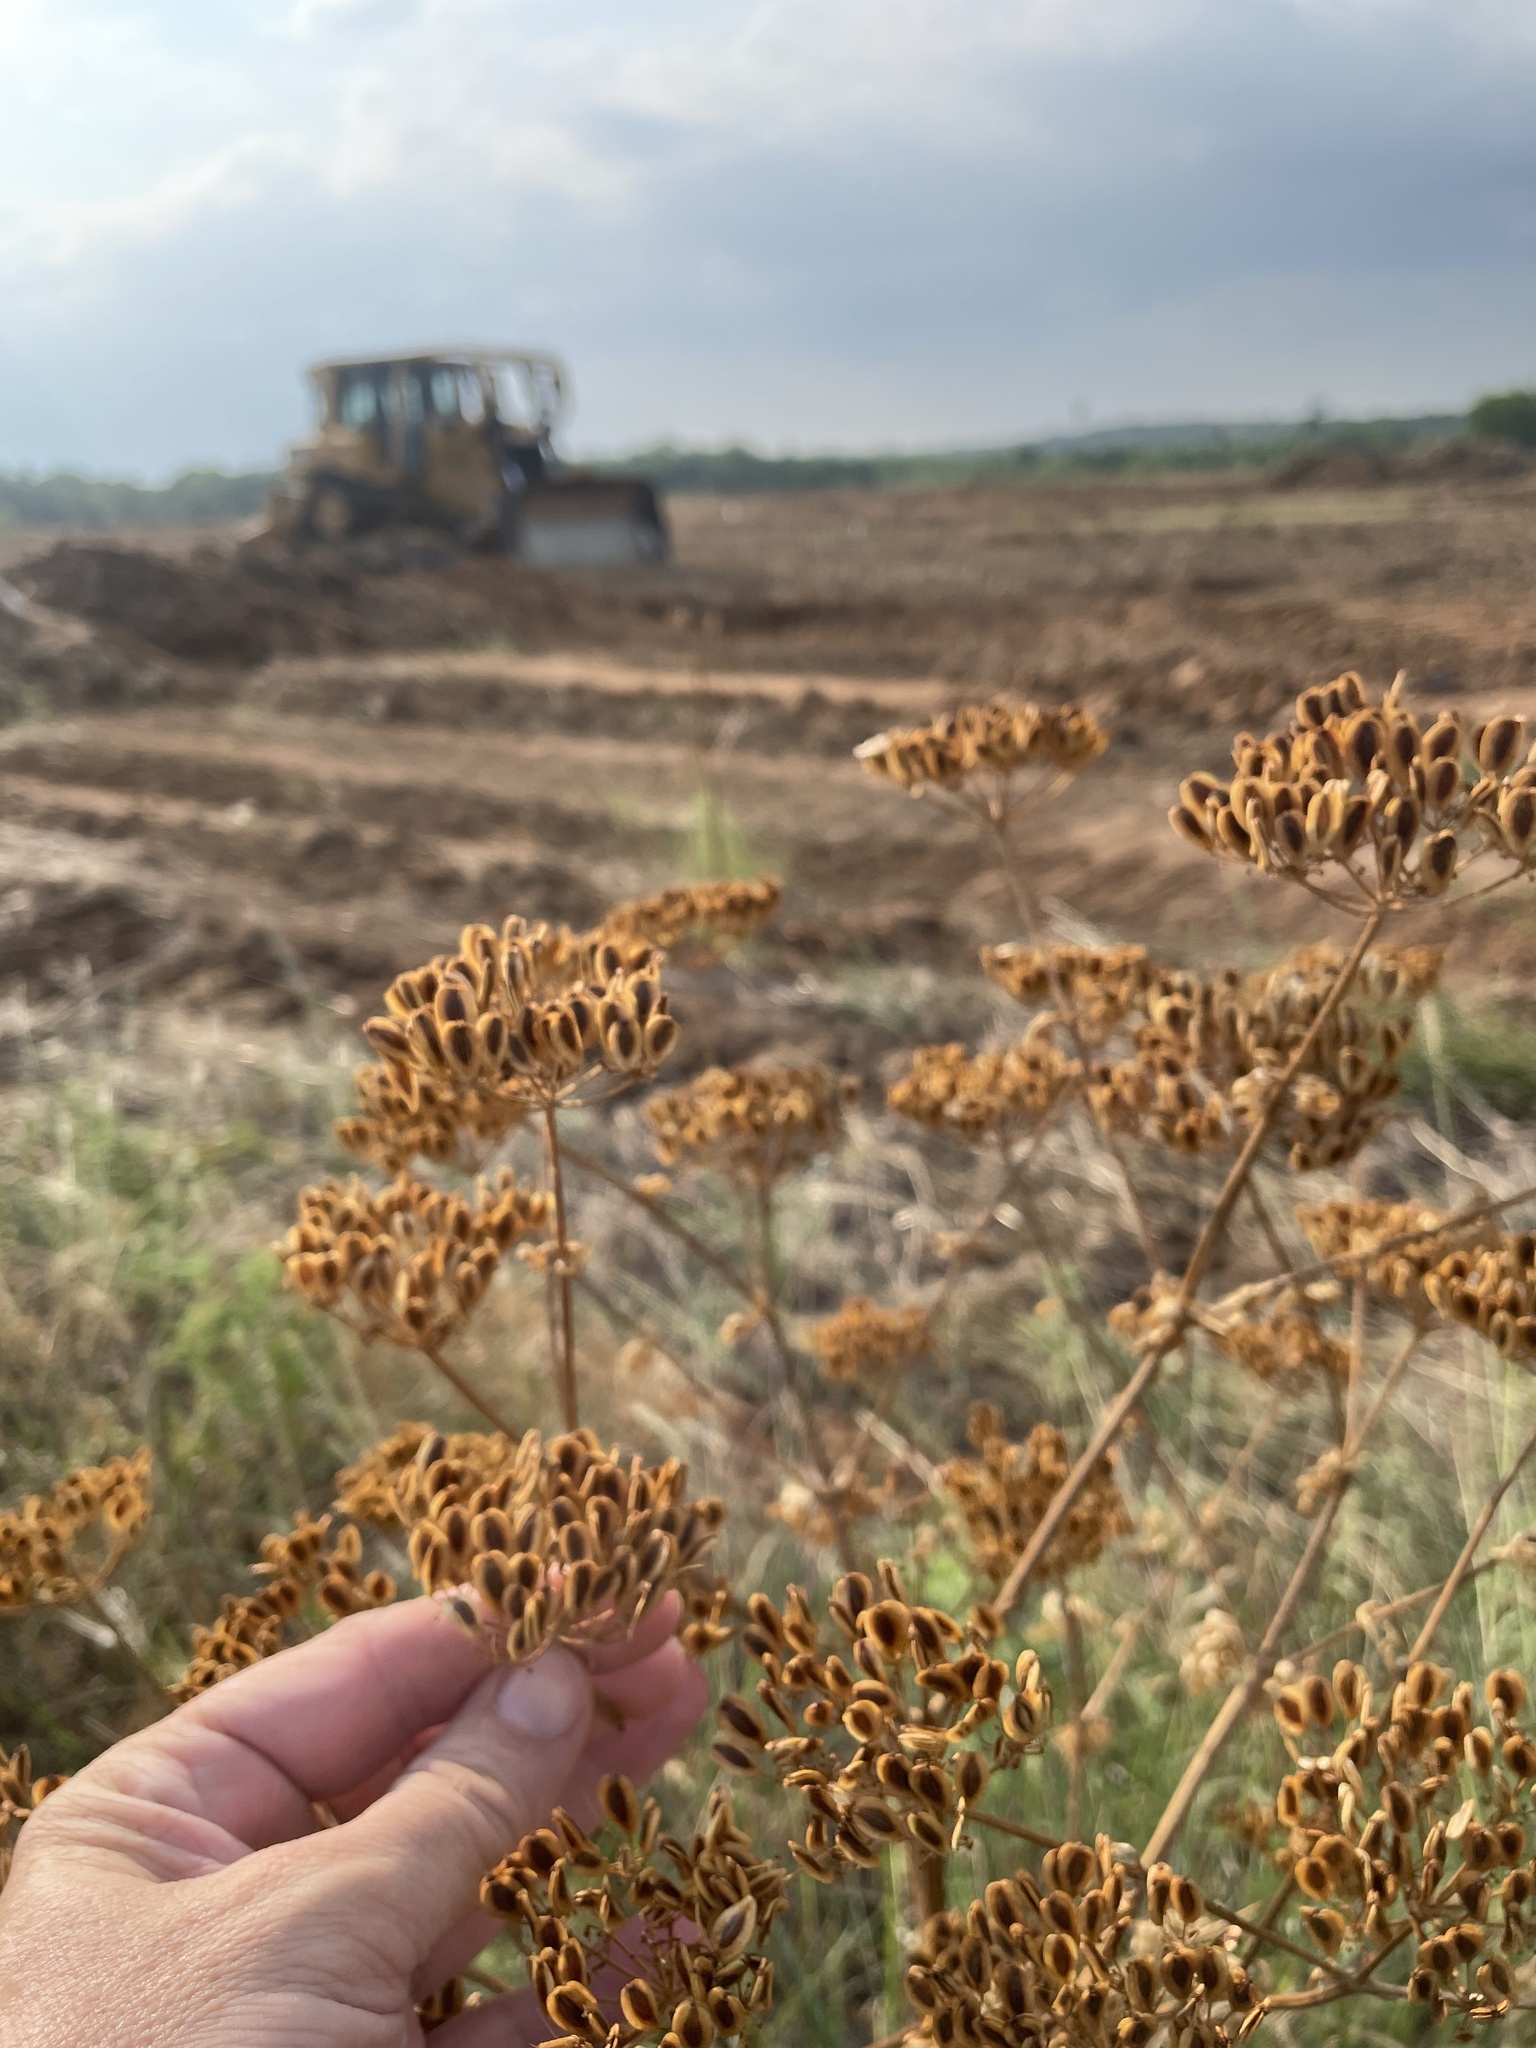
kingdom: Plantae
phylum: Tracheophyta
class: Magnoliopsida
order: Apiales
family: Apiaceae
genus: Polytaenia
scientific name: Polytaenia texana
